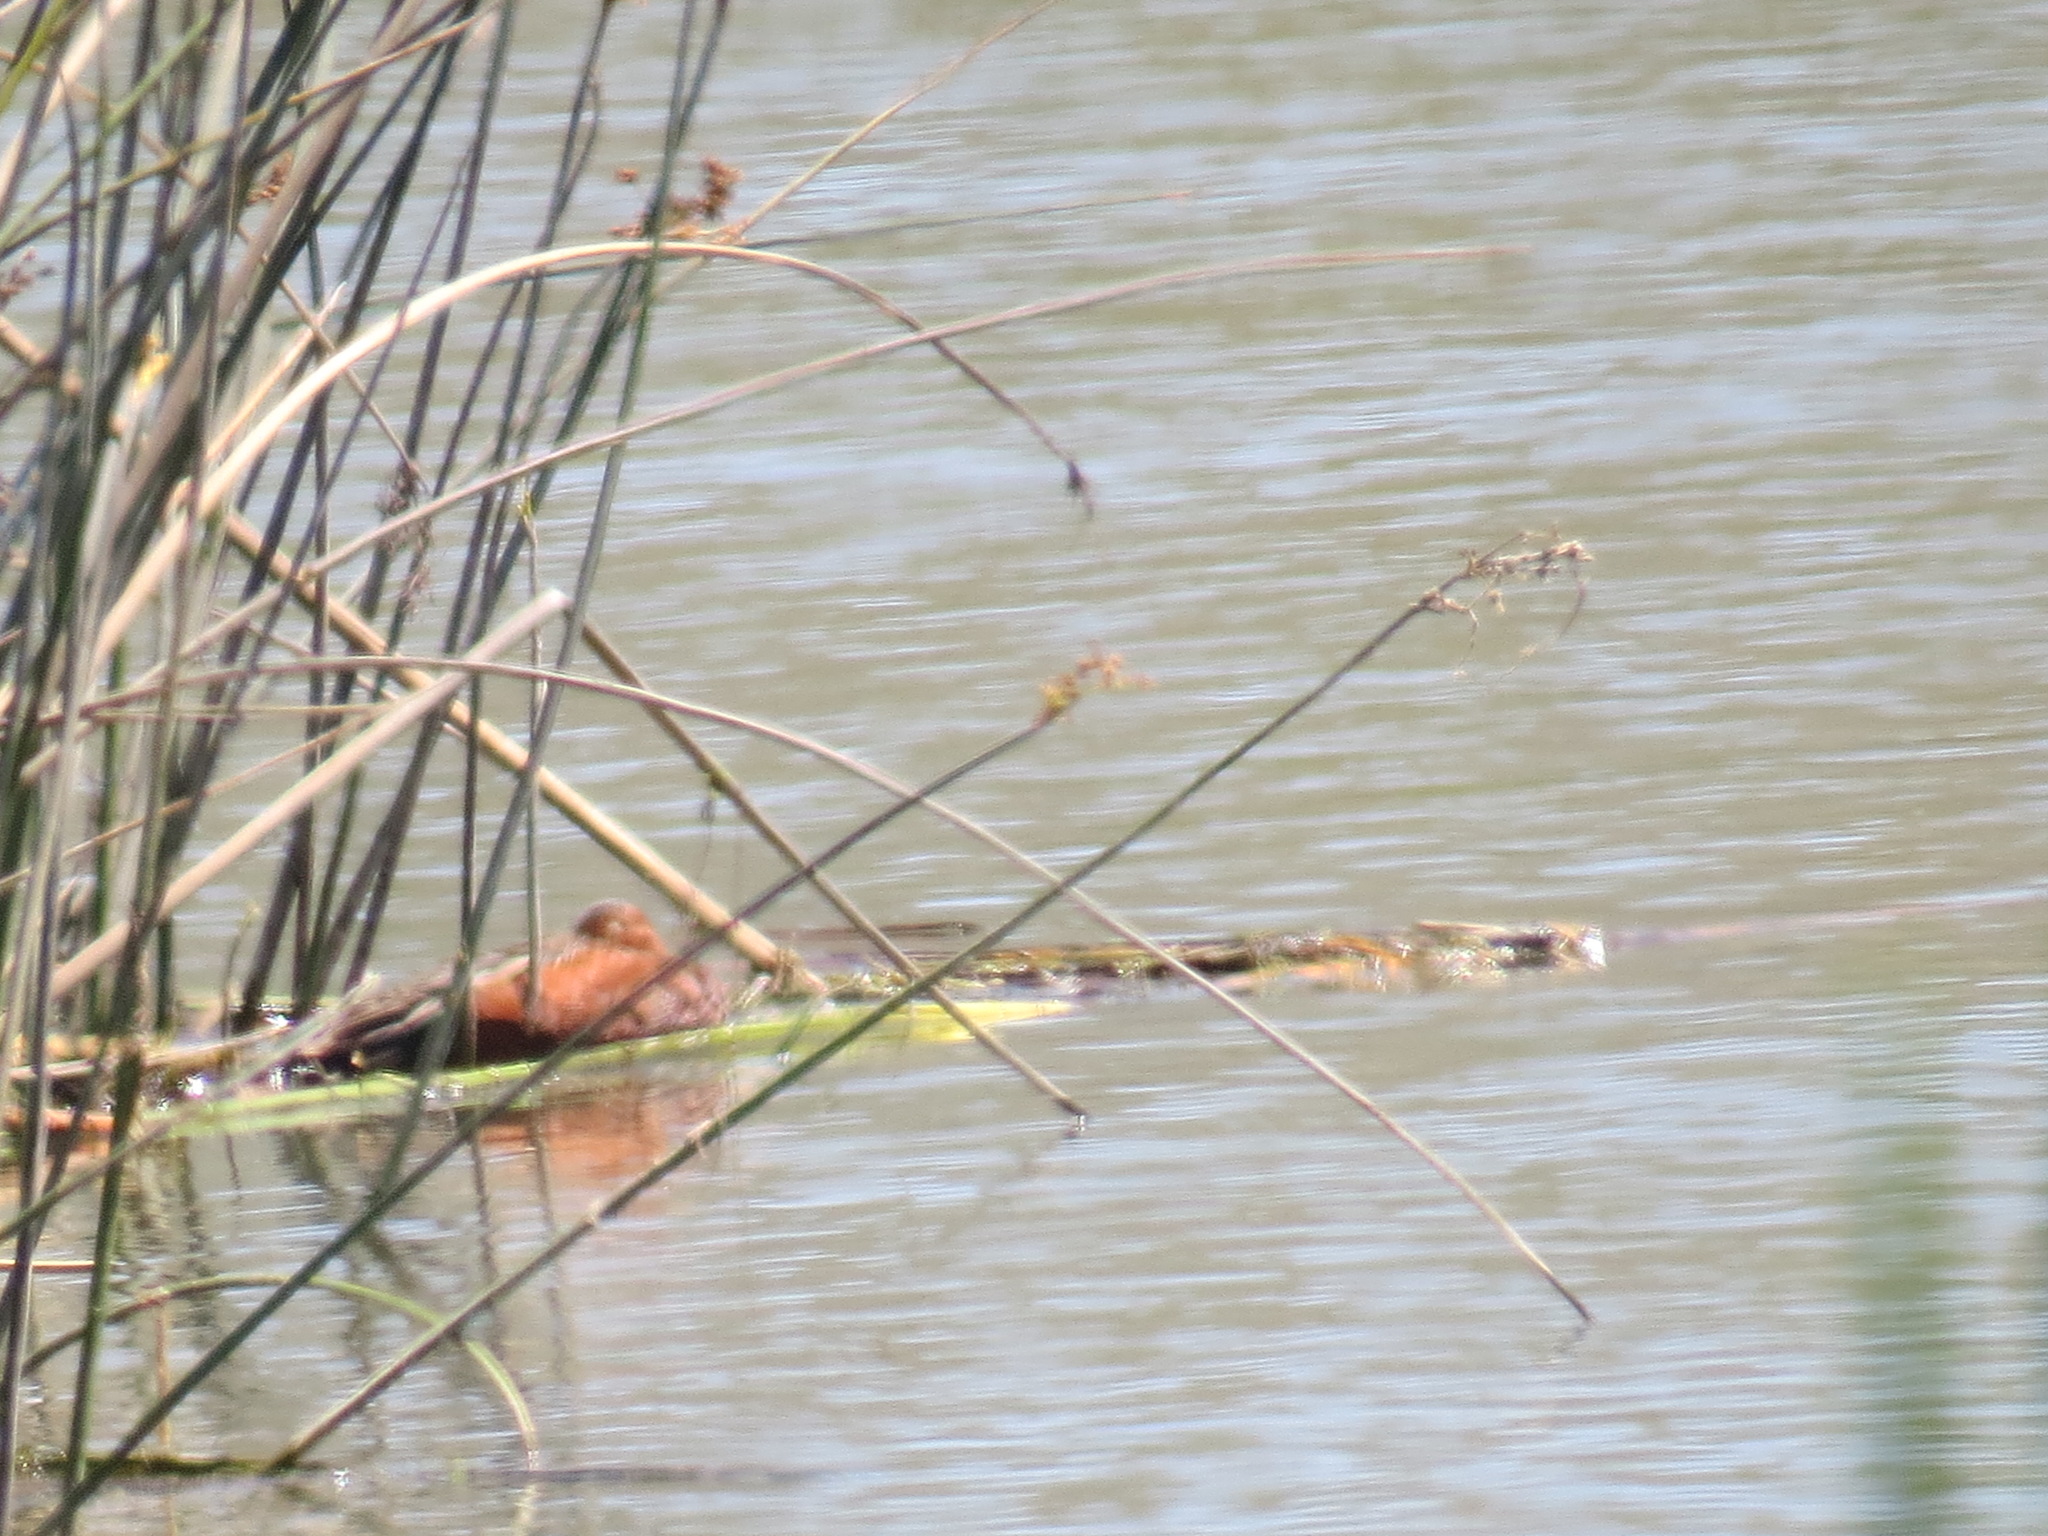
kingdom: Animalia
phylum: Chordata
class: Aves
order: Anseriformes
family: Anatidae
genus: Spatula
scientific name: Spatula cyanoptera
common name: Cinnamon teal
